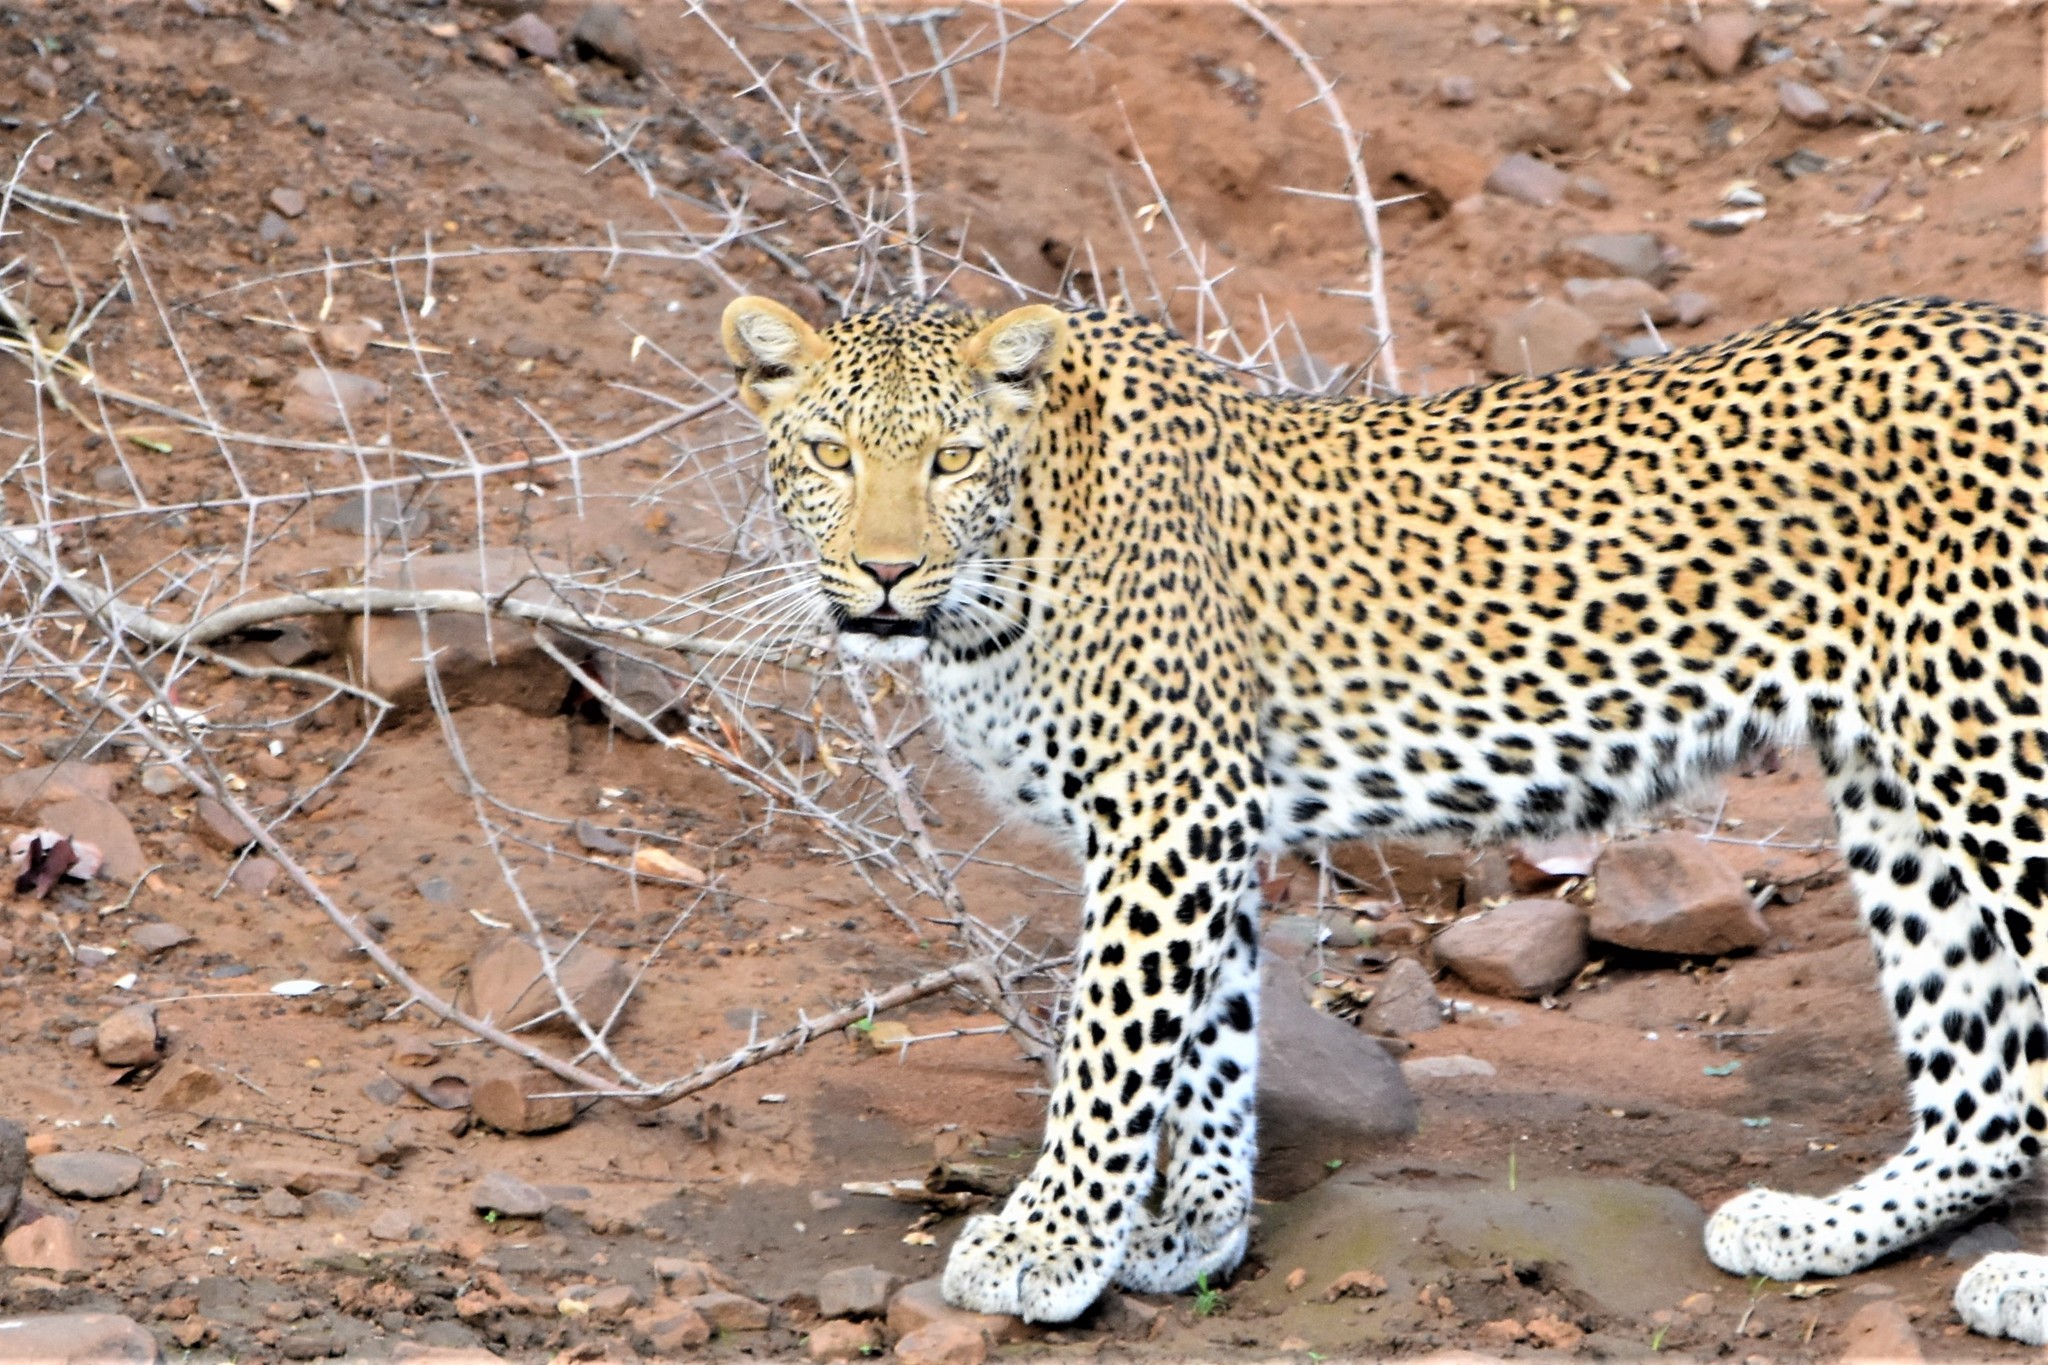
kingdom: Animalia
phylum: Chordata
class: Mammalia
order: Carnivora
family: Felidae
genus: Panthera
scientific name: Panthera pardus
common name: Leopard
